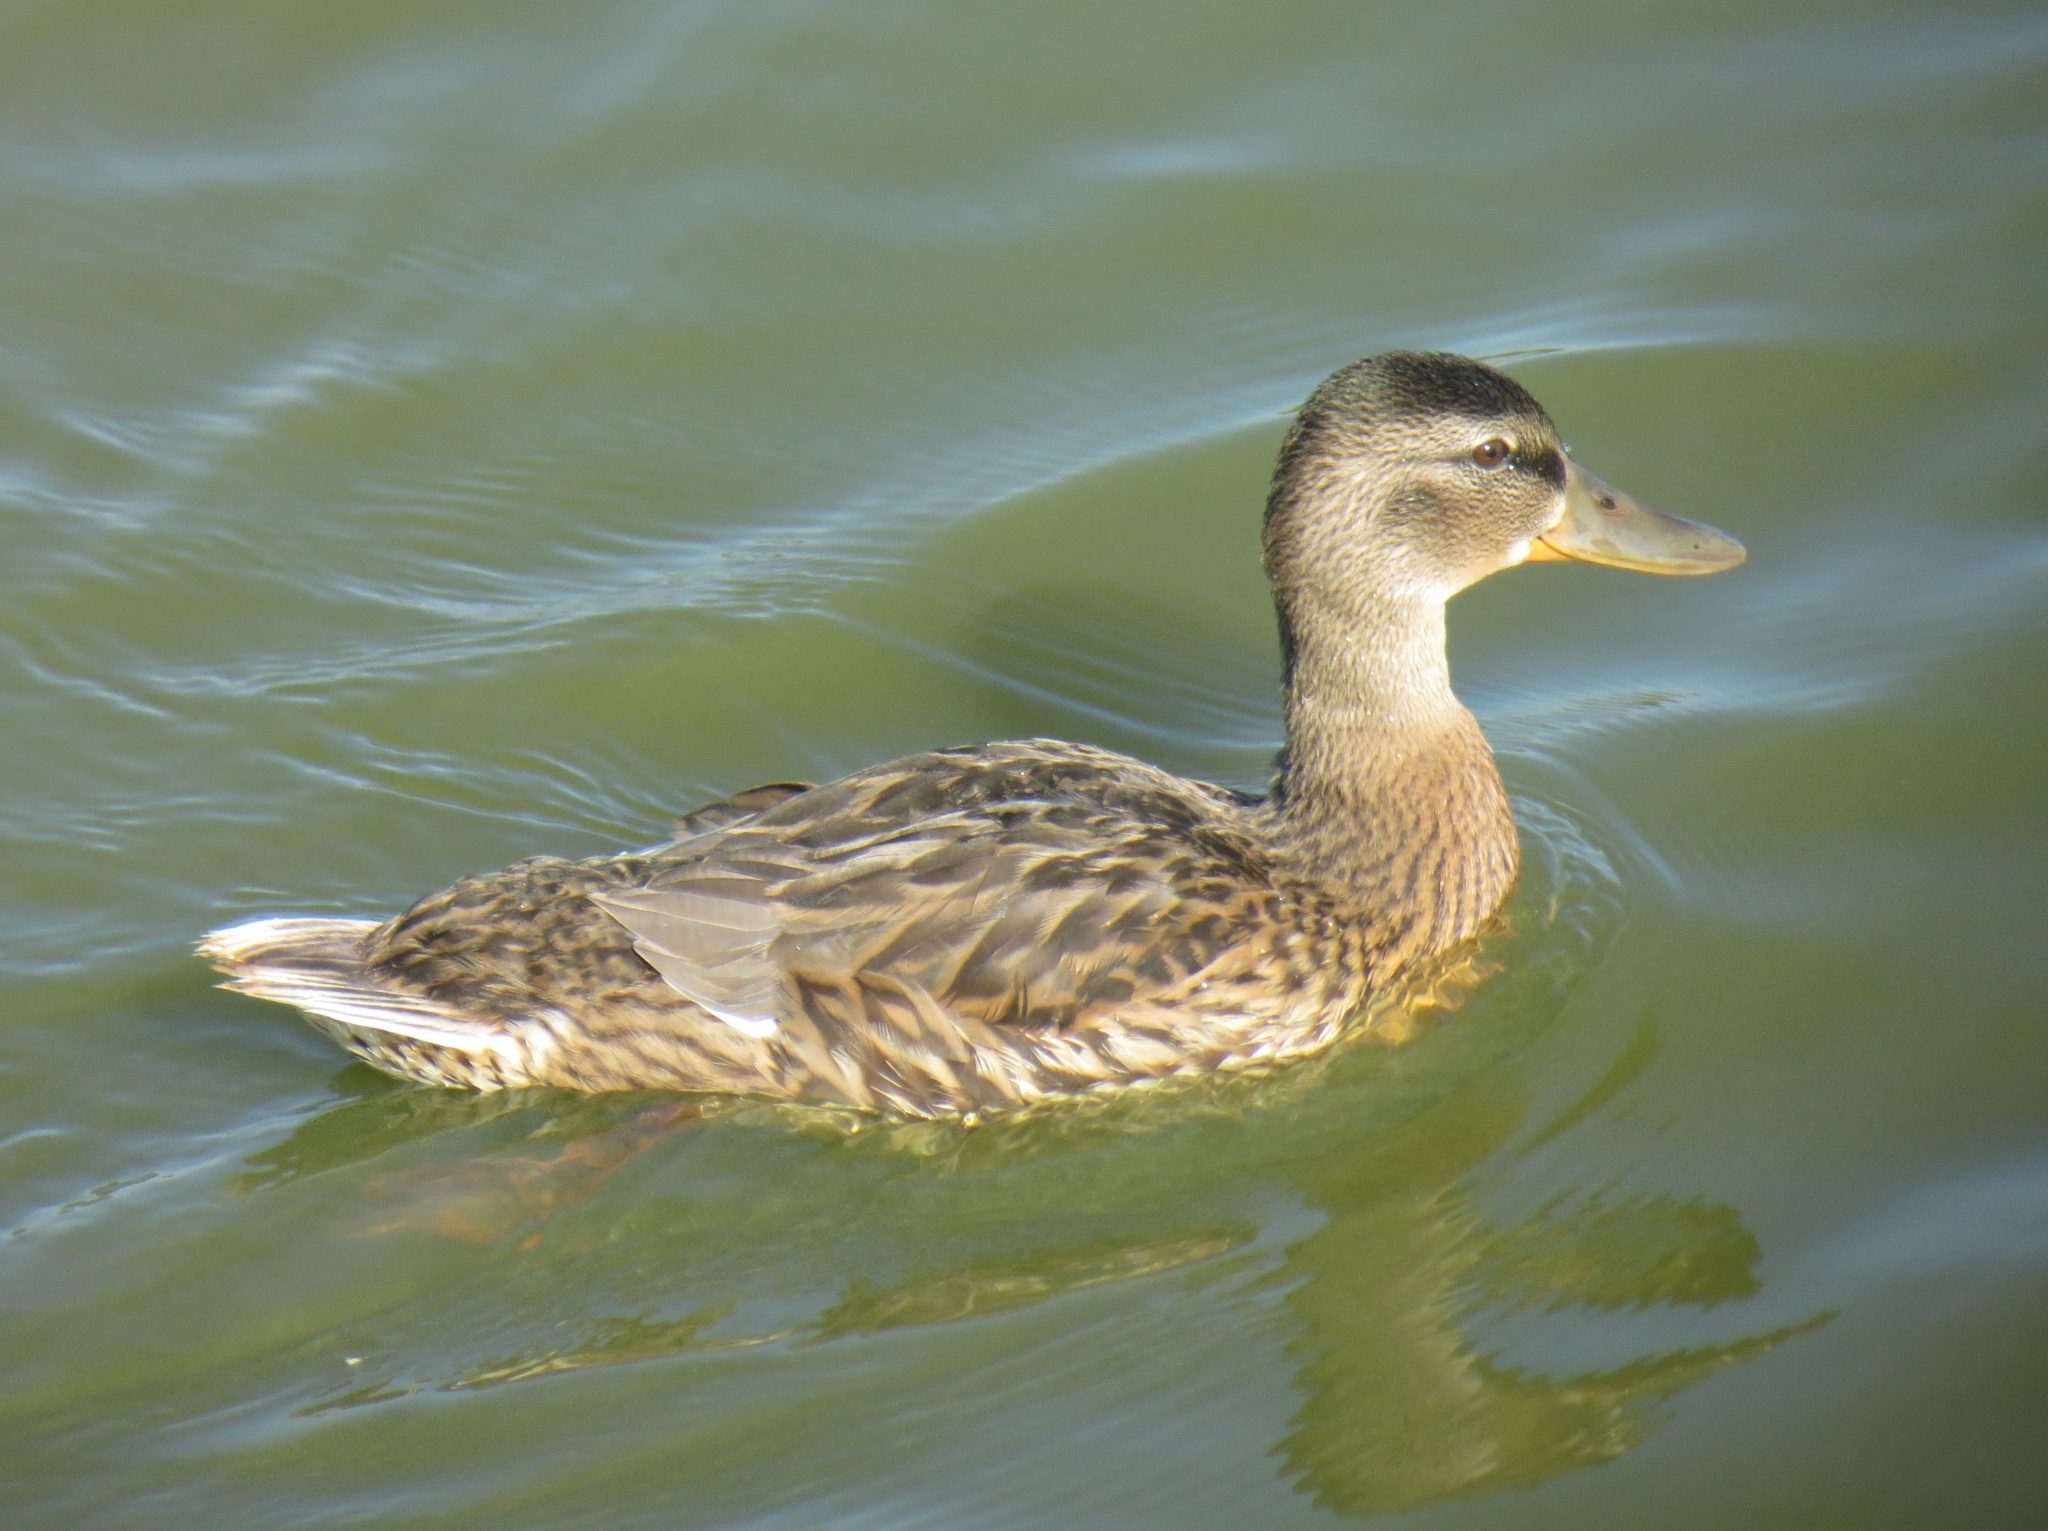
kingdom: Animalia
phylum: Chordata
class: Aves
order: Anseriformes
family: Anatidae
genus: Anas
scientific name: Anas platyrhynchos
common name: Mallard
